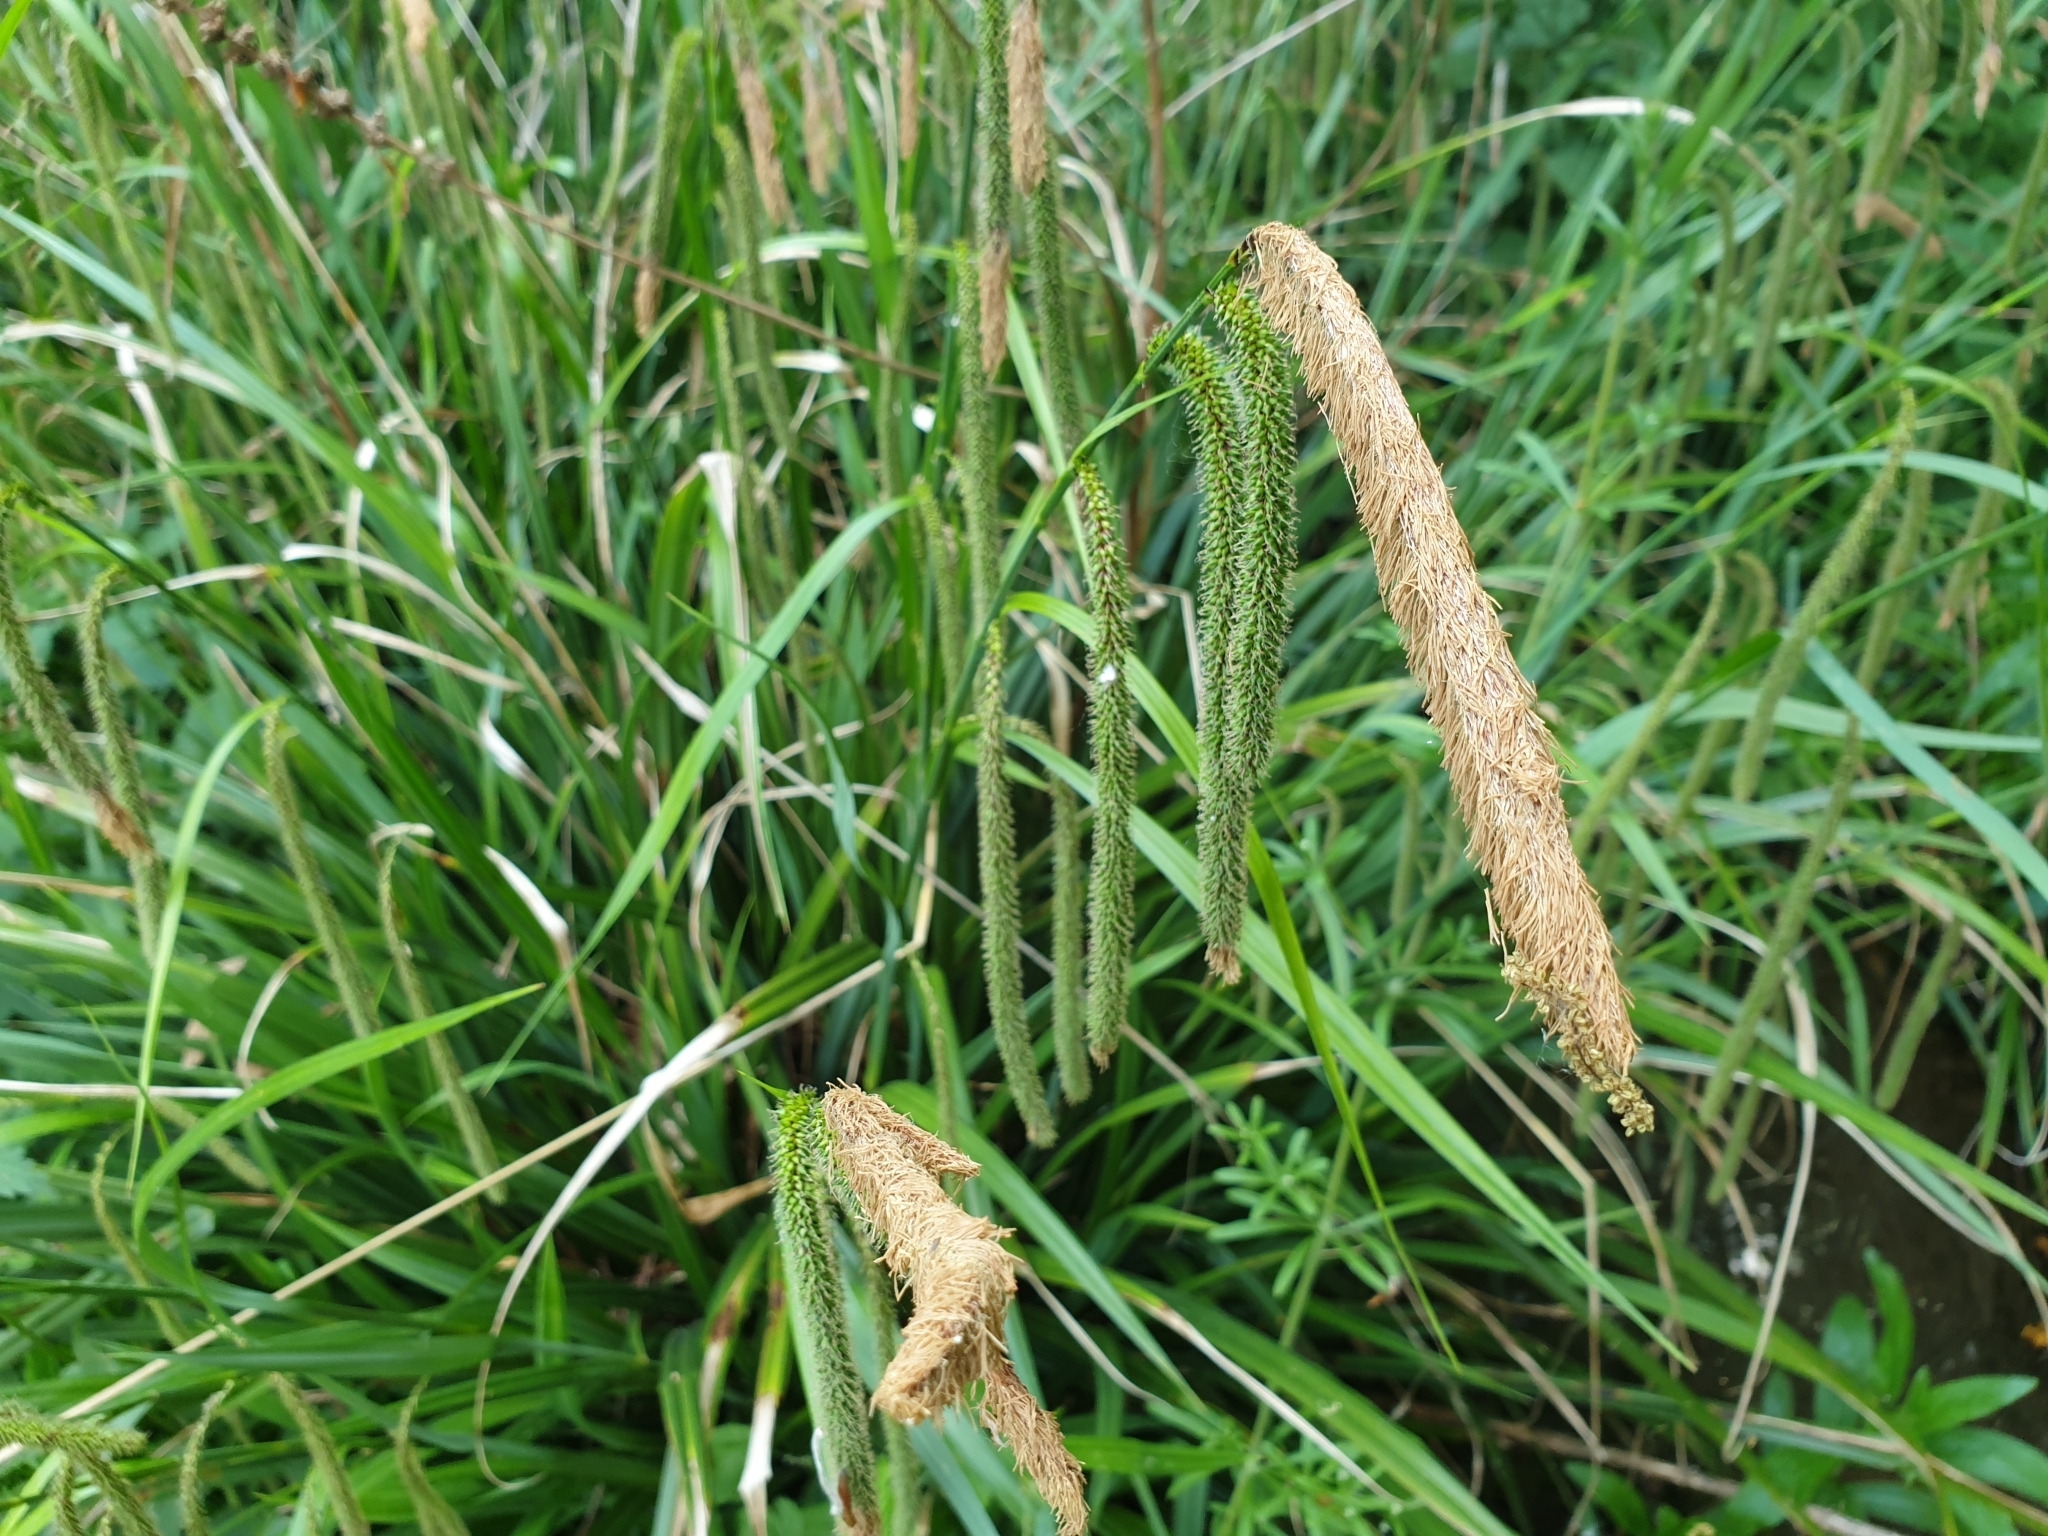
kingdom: Plantae
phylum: Tracheophyta
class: Liliopsida
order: Poales
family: Cyperaceae
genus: Carex
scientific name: Carex pendula
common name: Pendulous sedge
